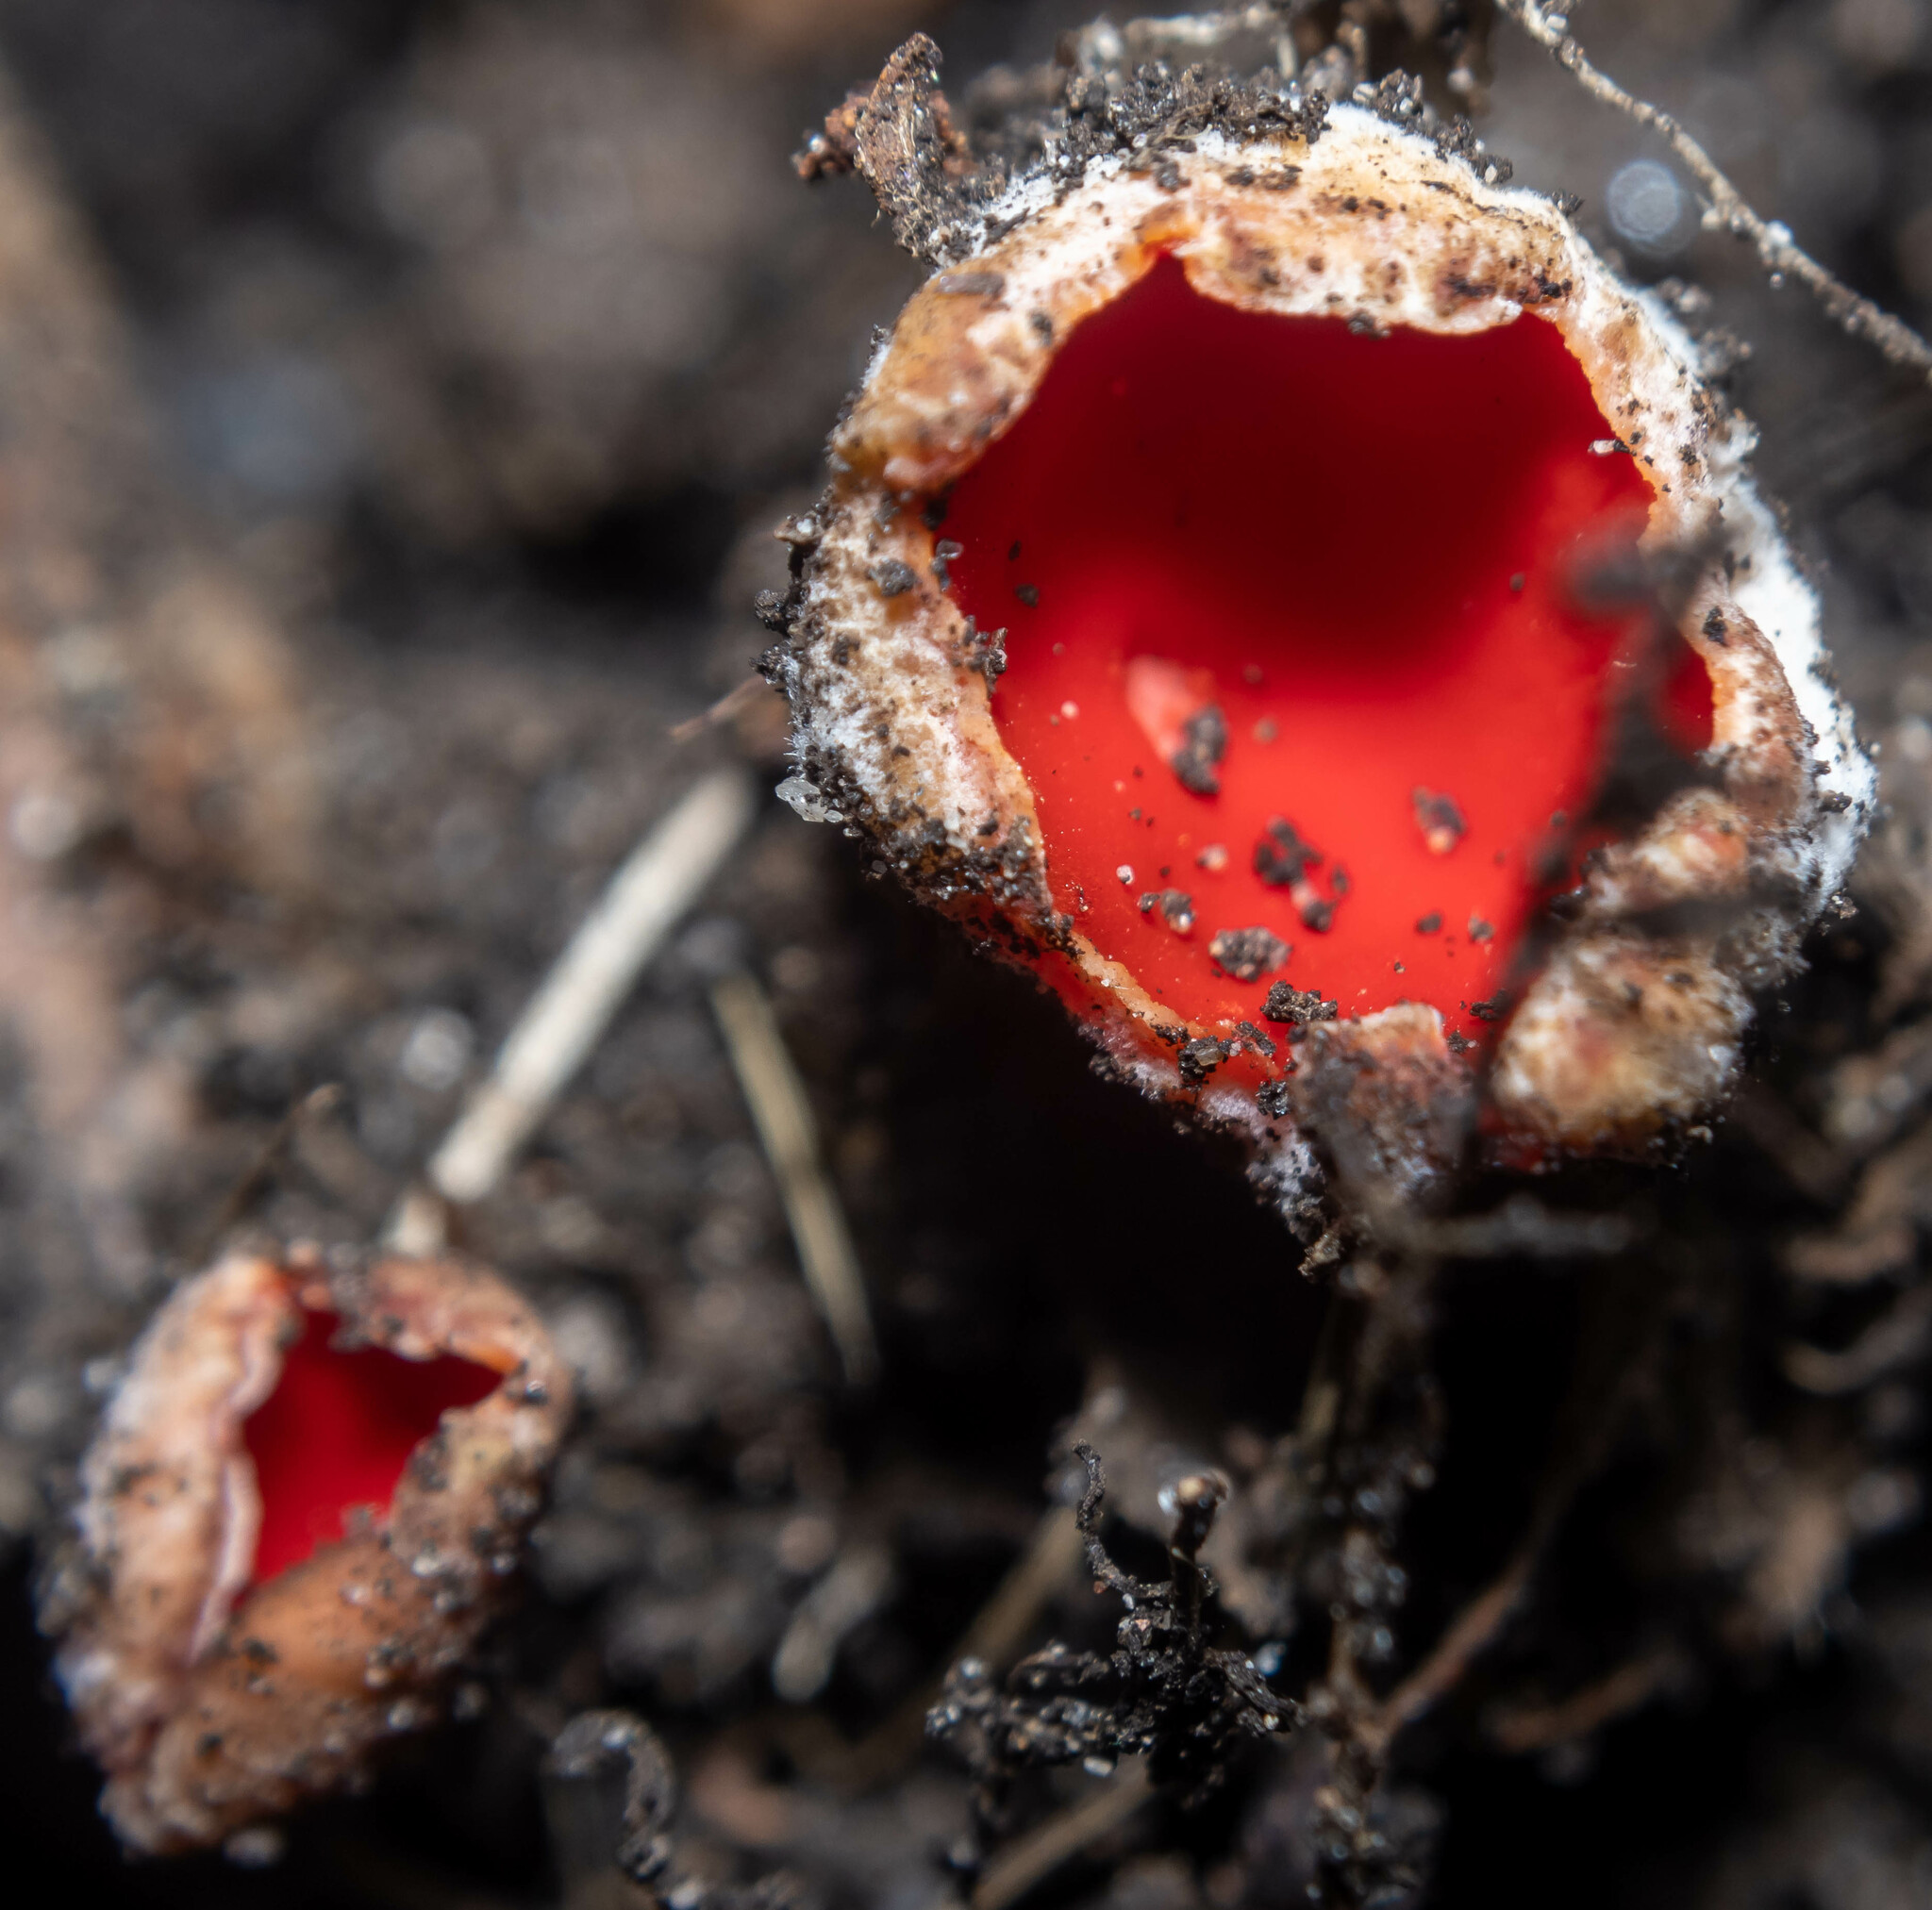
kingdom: Fungi
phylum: Ascomycota
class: Pezizomycetes
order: Pezizales
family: Sarcoscyphaceae
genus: Sarcoscypha
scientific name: Sarcoscypha
